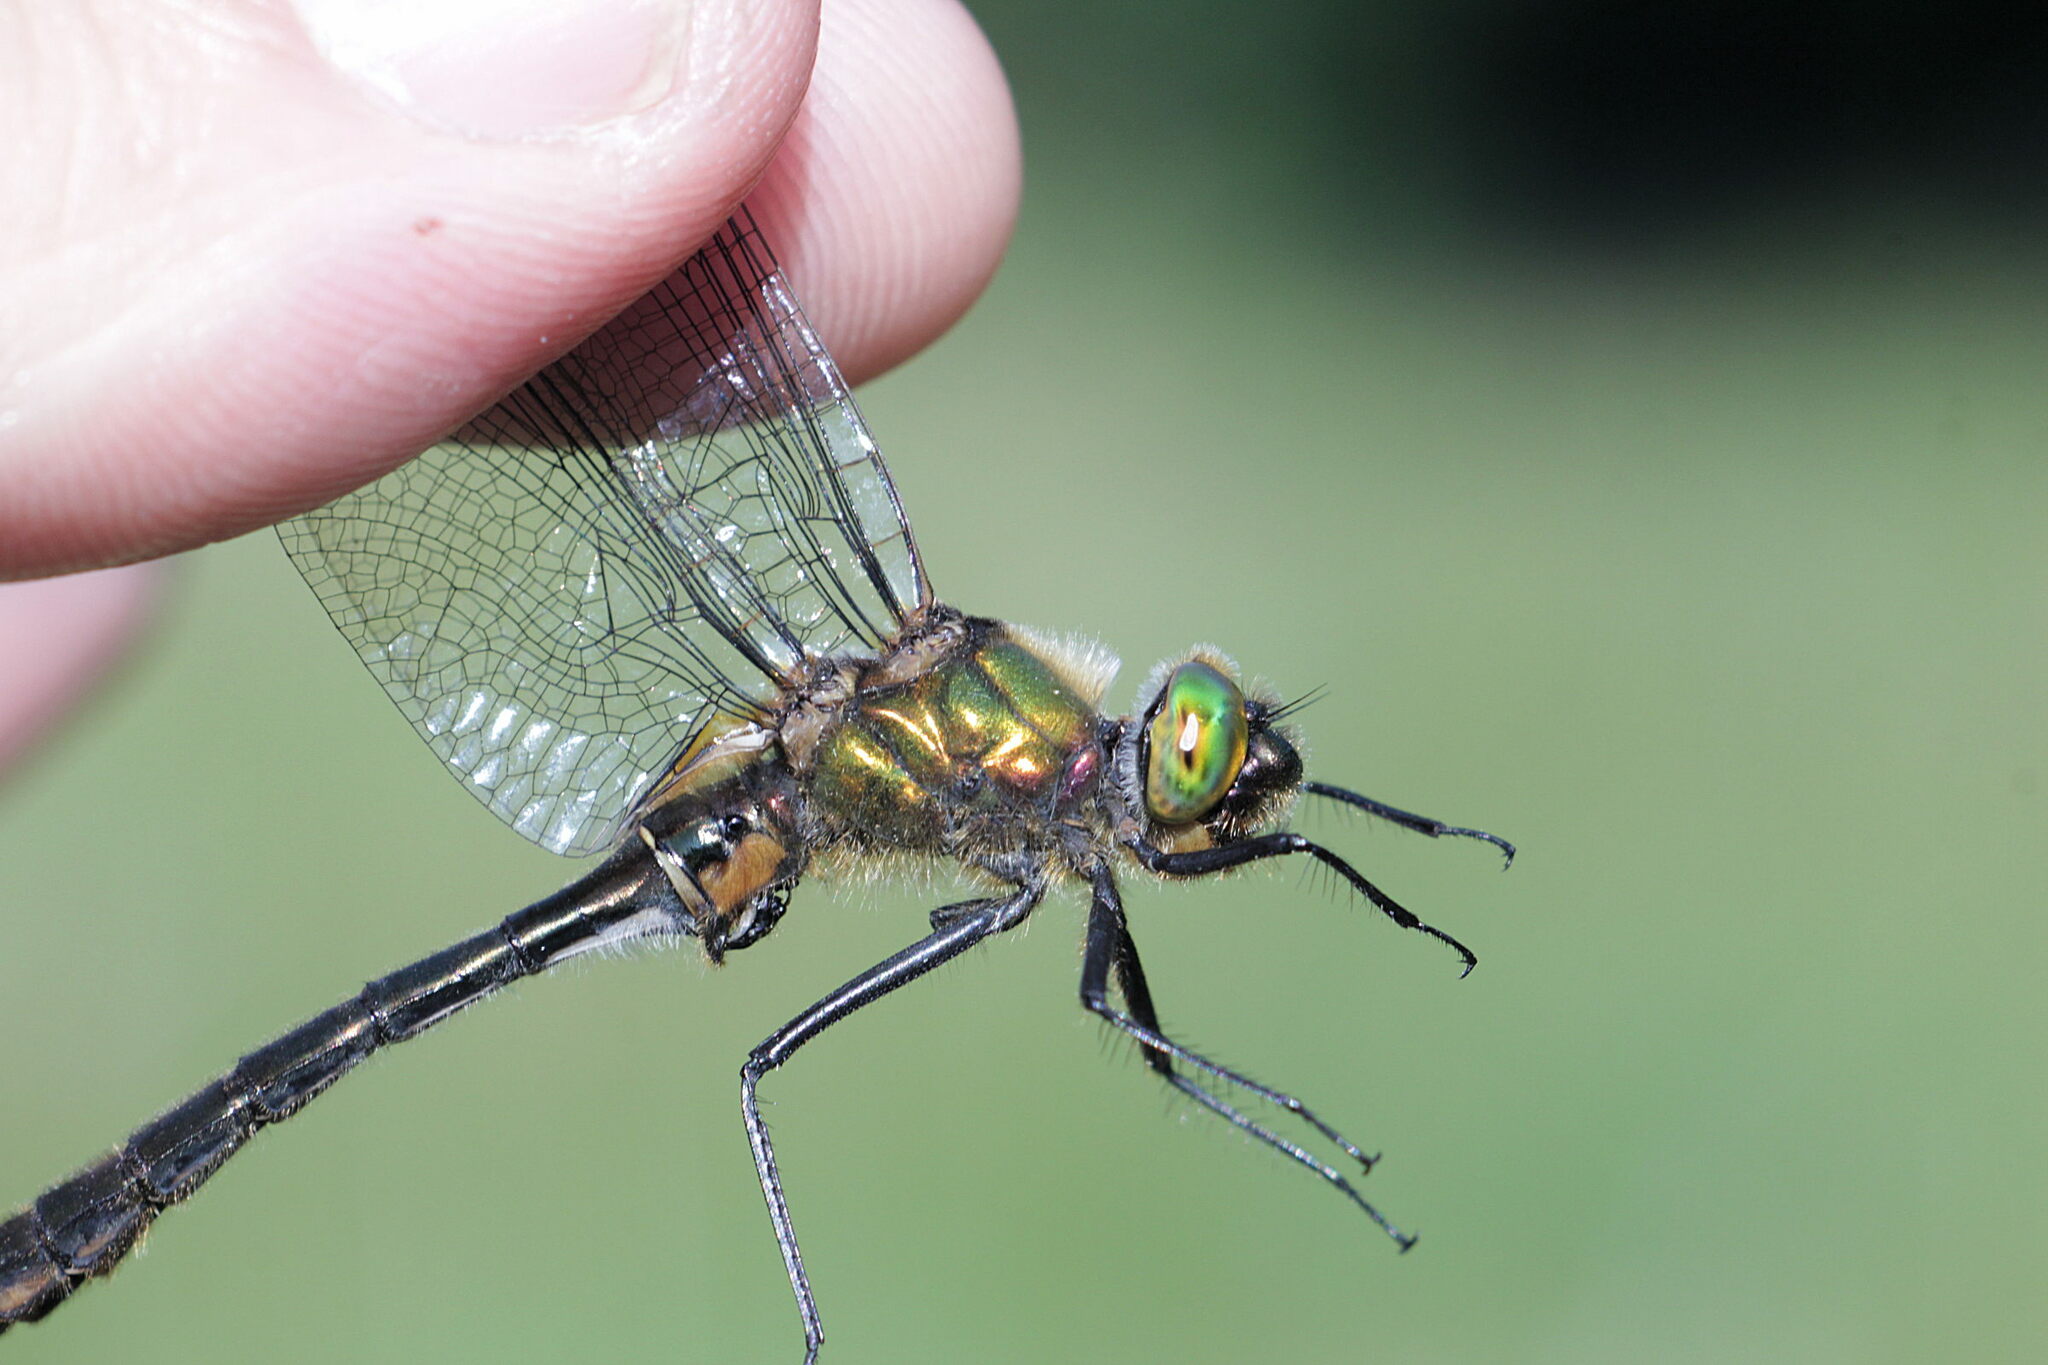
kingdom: Animalia
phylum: Arthropoda
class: Insecta
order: Odonata
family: Corduliidae
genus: Cordulia
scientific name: Cordulia aenea
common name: Downy emerald
